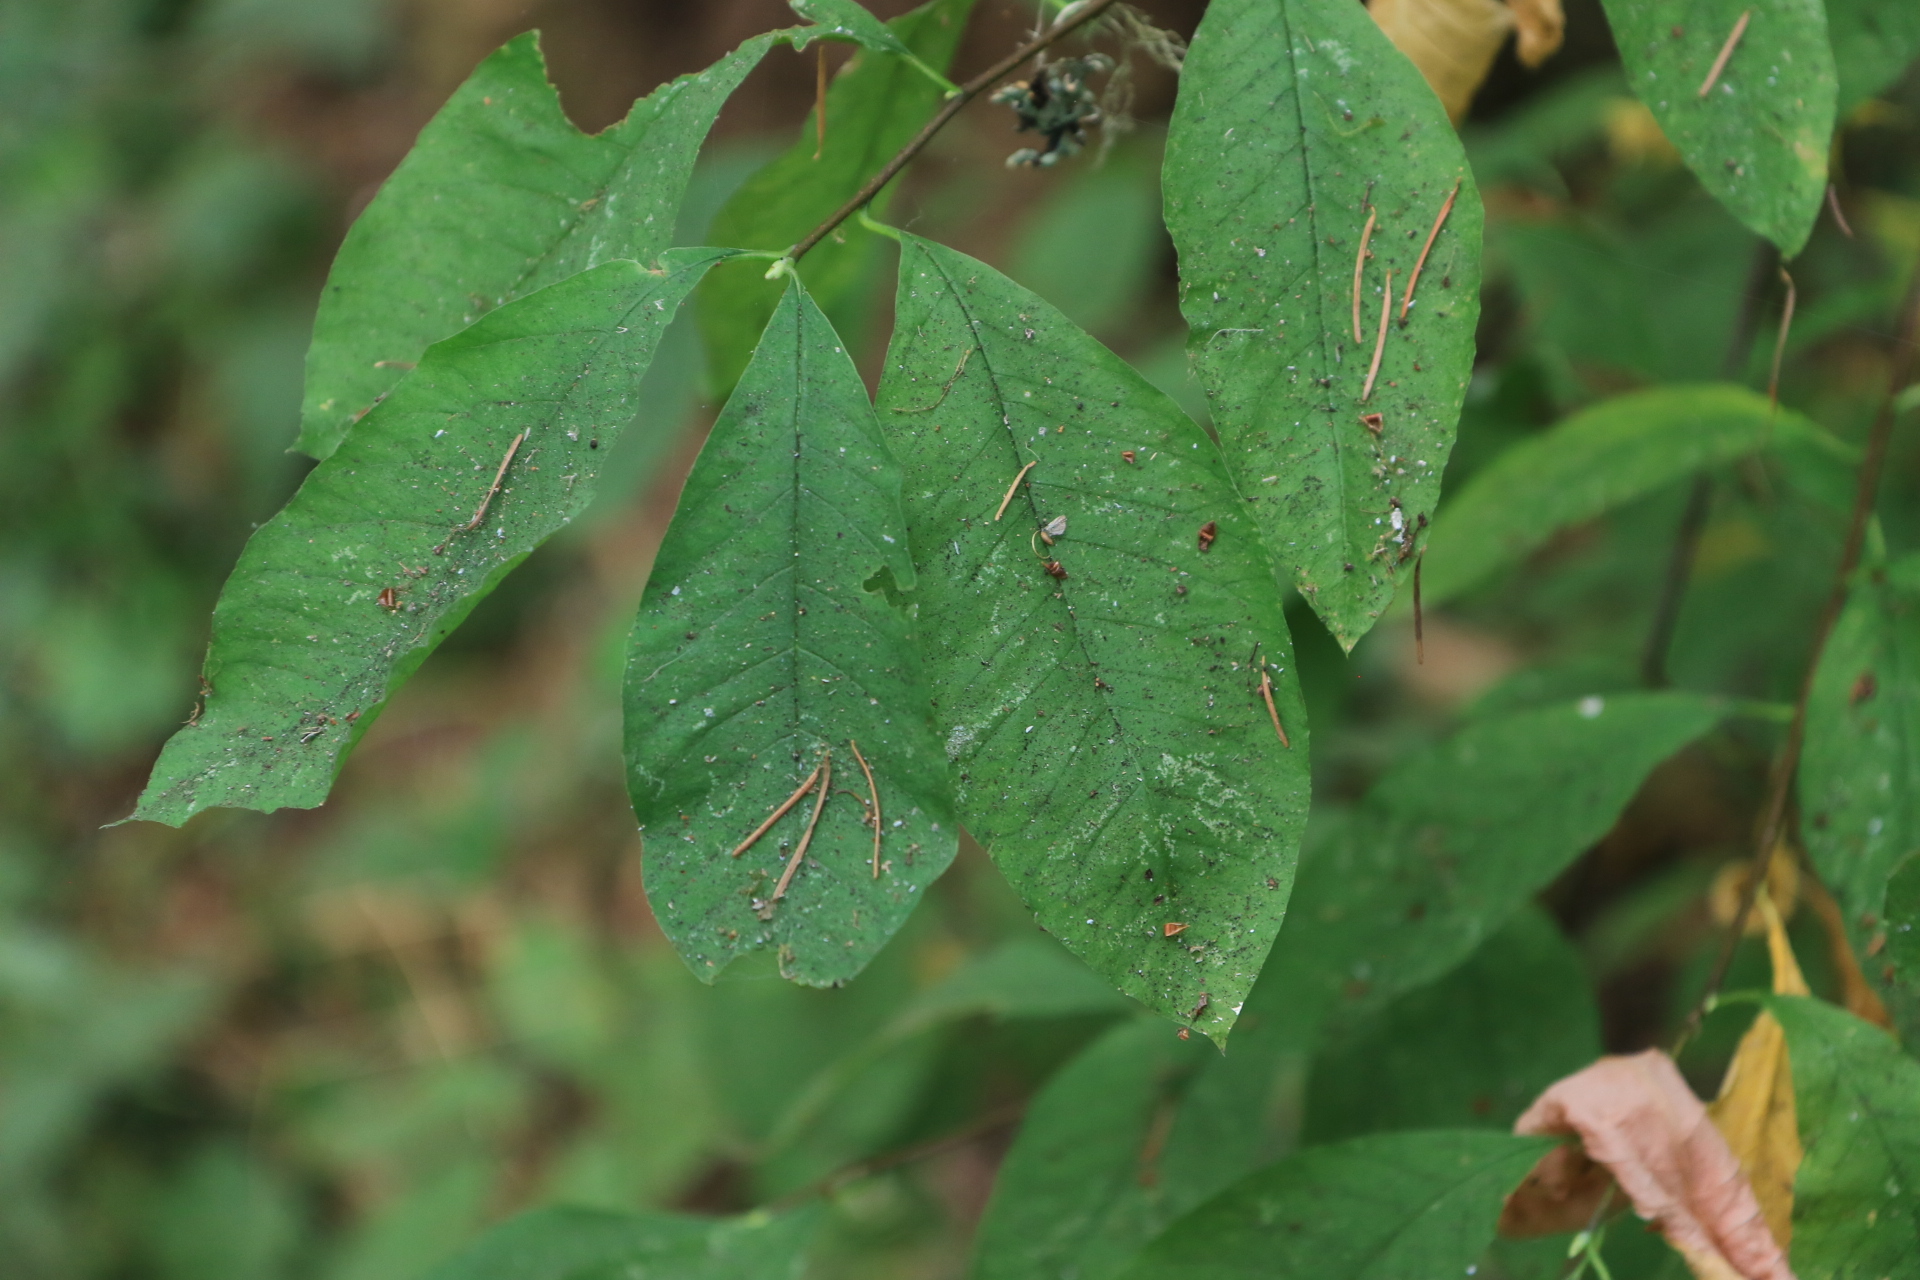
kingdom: Plantae
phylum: Tracheophyta
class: Magnoliopsida
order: Rosales
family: Rosaceae
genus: Oemleria
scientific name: Oemleria cerasiformis
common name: Osoberry
